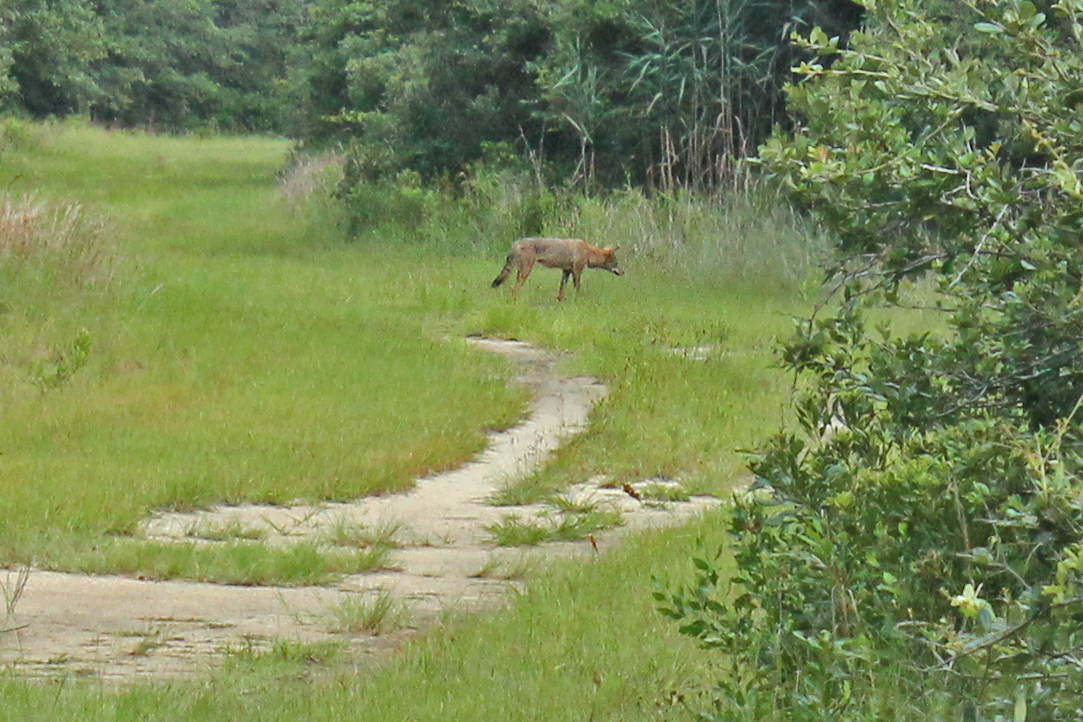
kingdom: Animalia
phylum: Chordata
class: Mammalia
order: Carnivora
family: Canidae
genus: Canis
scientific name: Canis latrans
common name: Coyote
